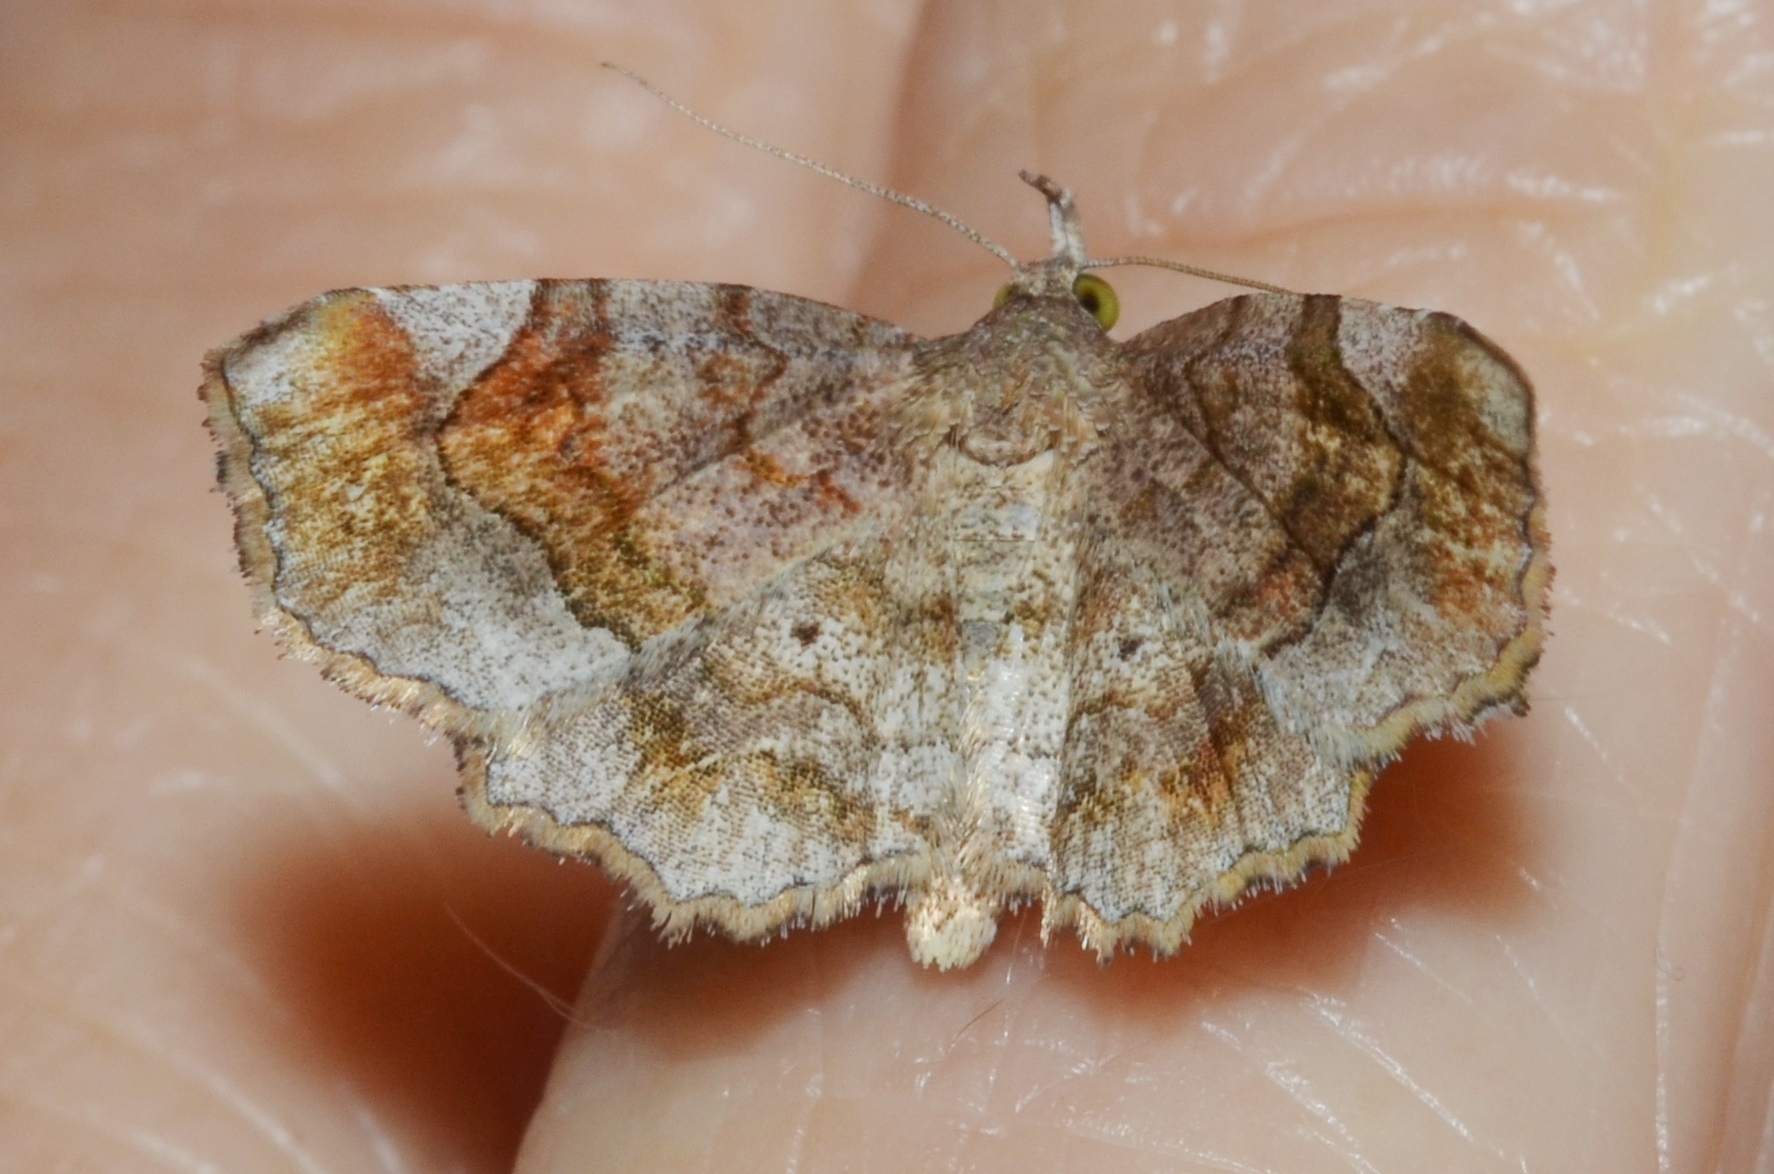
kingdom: Animalia
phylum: Arthropoda
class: Insecta
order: Lepidoptera
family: Erebidae
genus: Pangrapta
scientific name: Pangrapta decoralis
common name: Decorated owlet
